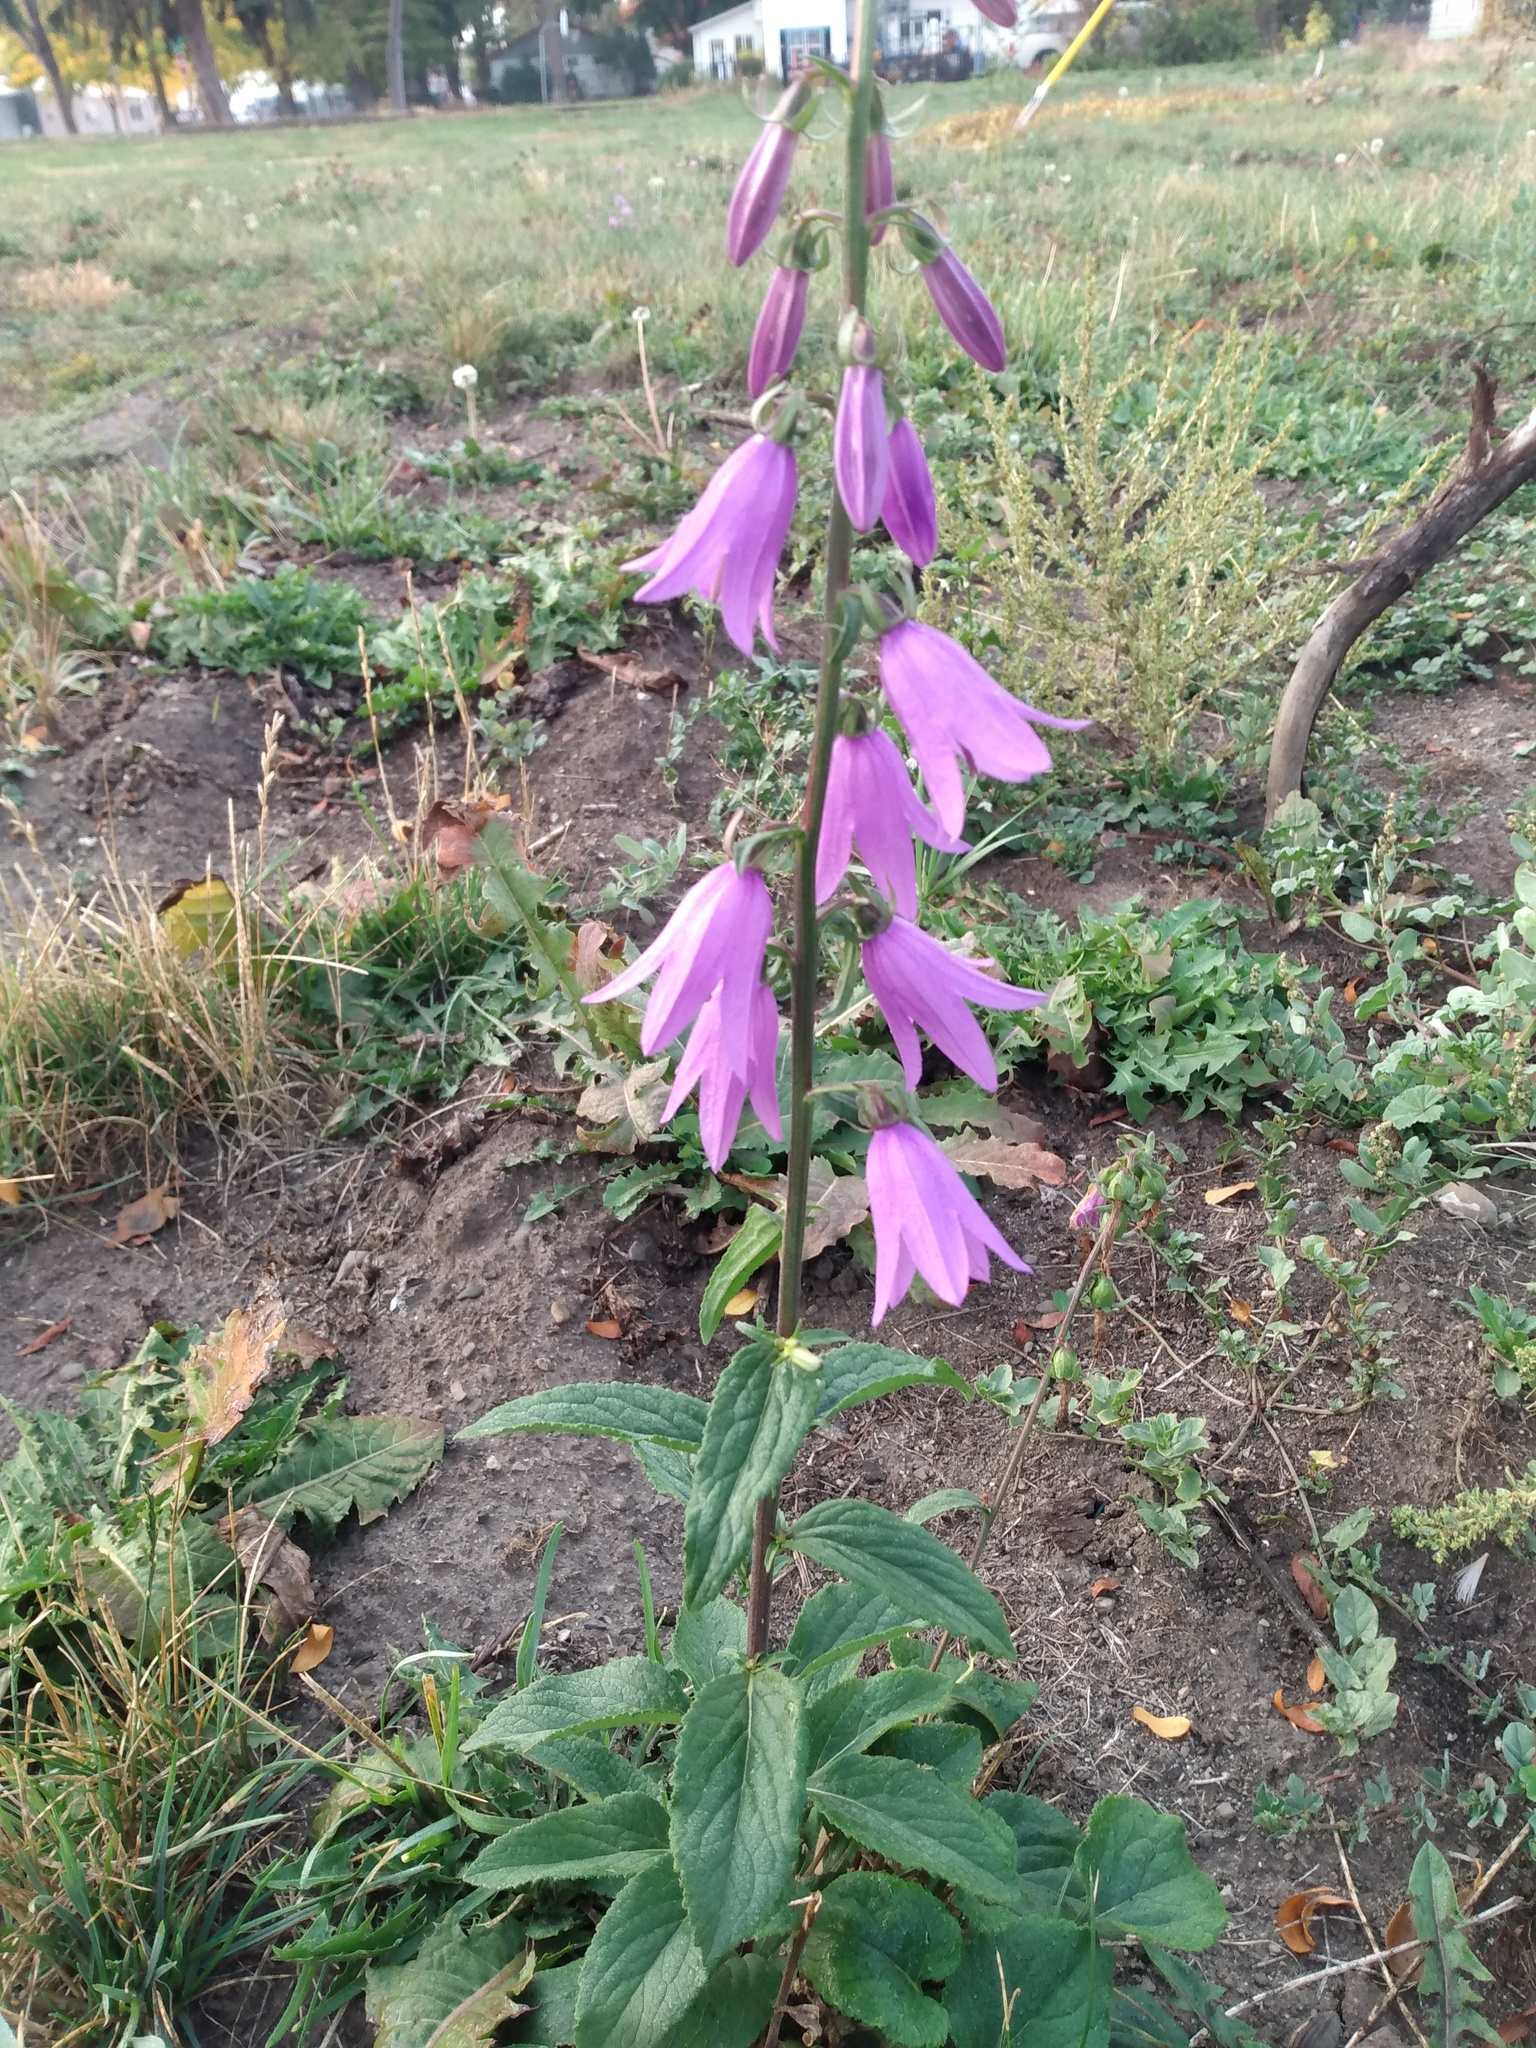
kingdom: Plantae
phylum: Tracheophyta
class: Magnoliopsida
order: Asterales
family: Campanulaceae
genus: Campanula
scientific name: Campanula rapunculoides
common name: Creeping bellflower
